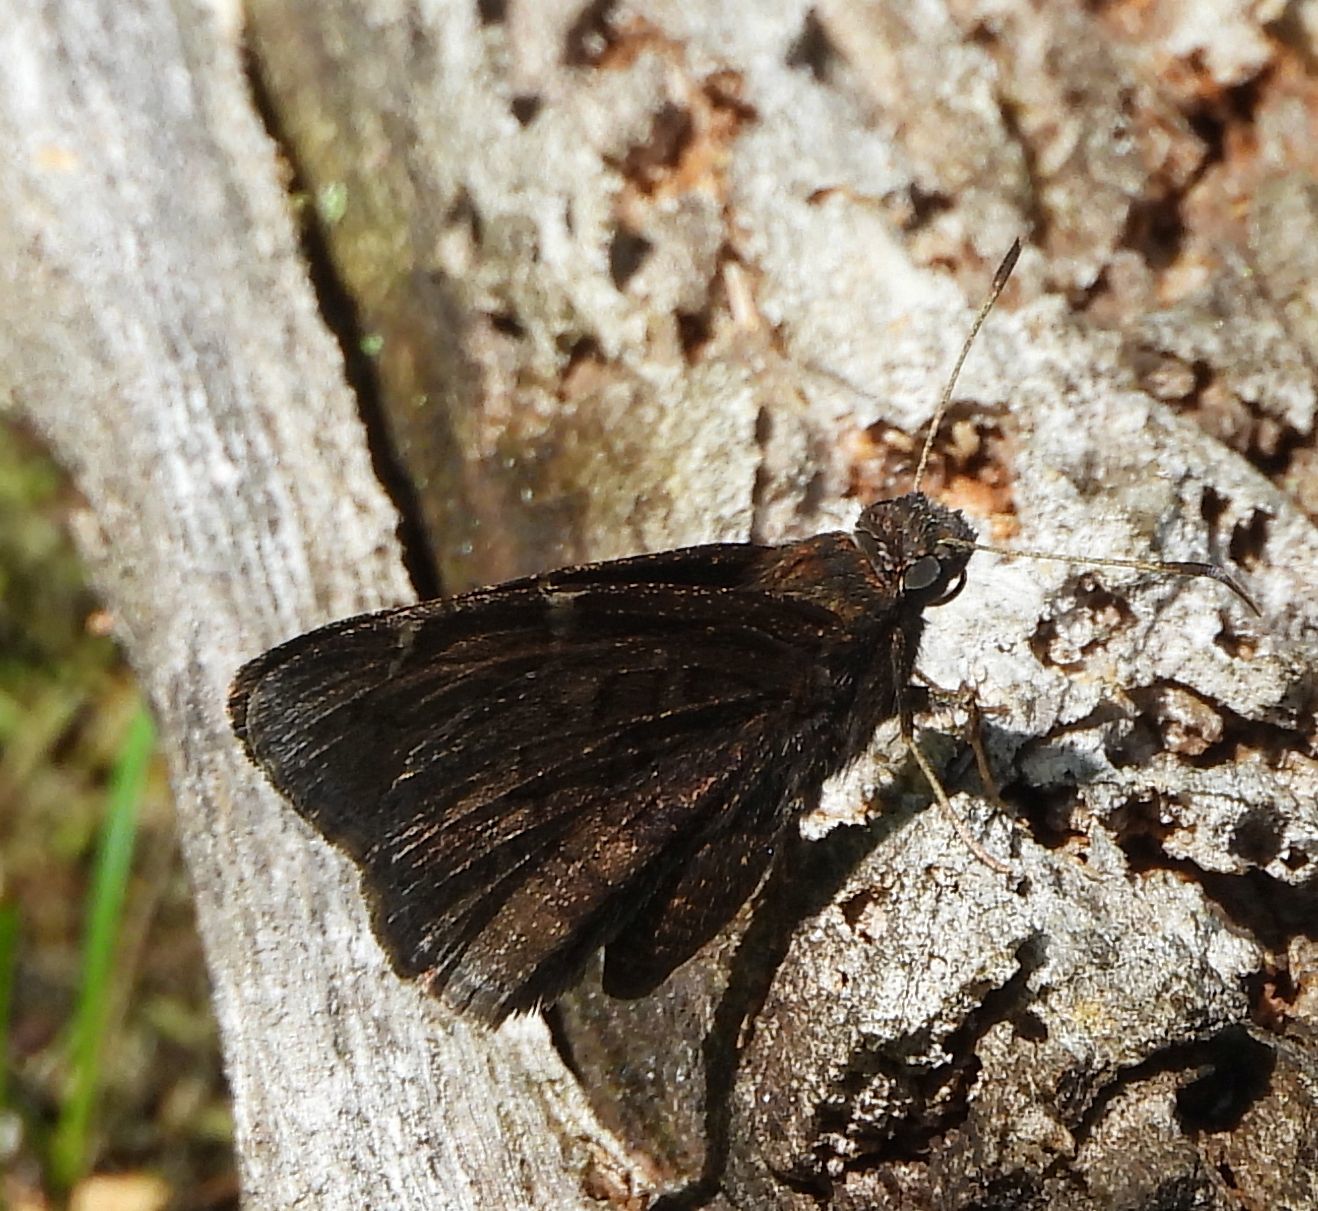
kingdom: Animalia
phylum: Arthropoda
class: Insecta
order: Lepidoptera
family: Hesperiidae
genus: Thorybes
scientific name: Thorybes pylades
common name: Northern cloudywing
